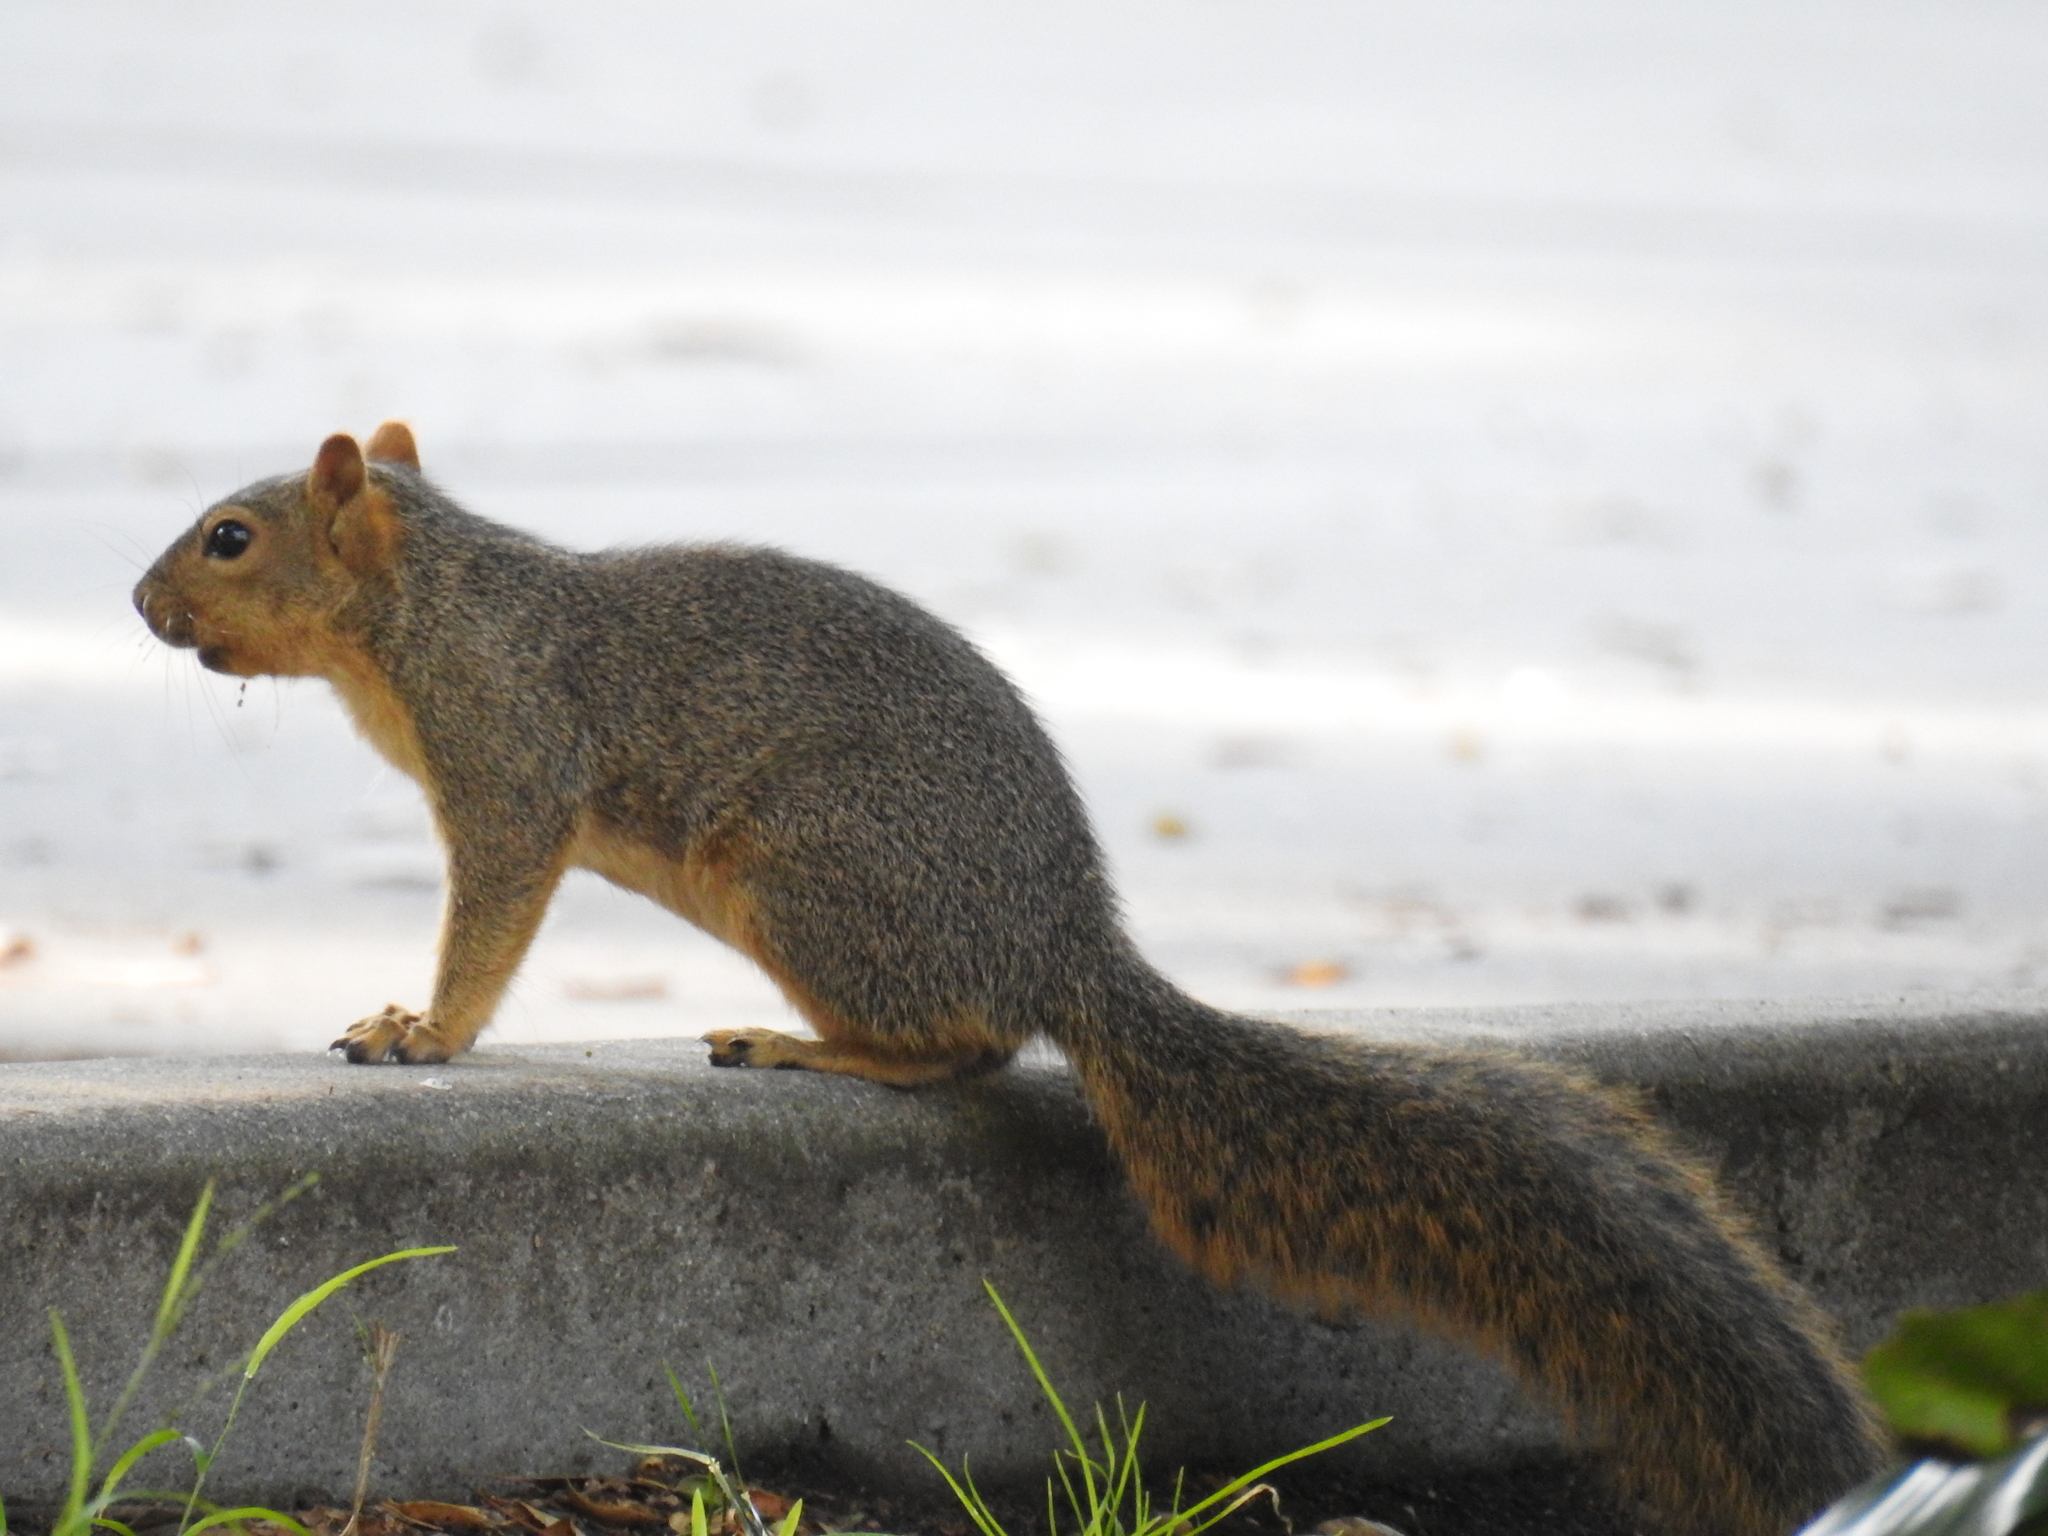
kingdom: Animalia
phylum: Chordata
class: Mammalia
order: Rodentia
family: Sciuridae
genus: Sciurus
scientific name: Sciurus niger
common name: Fox squirrel
